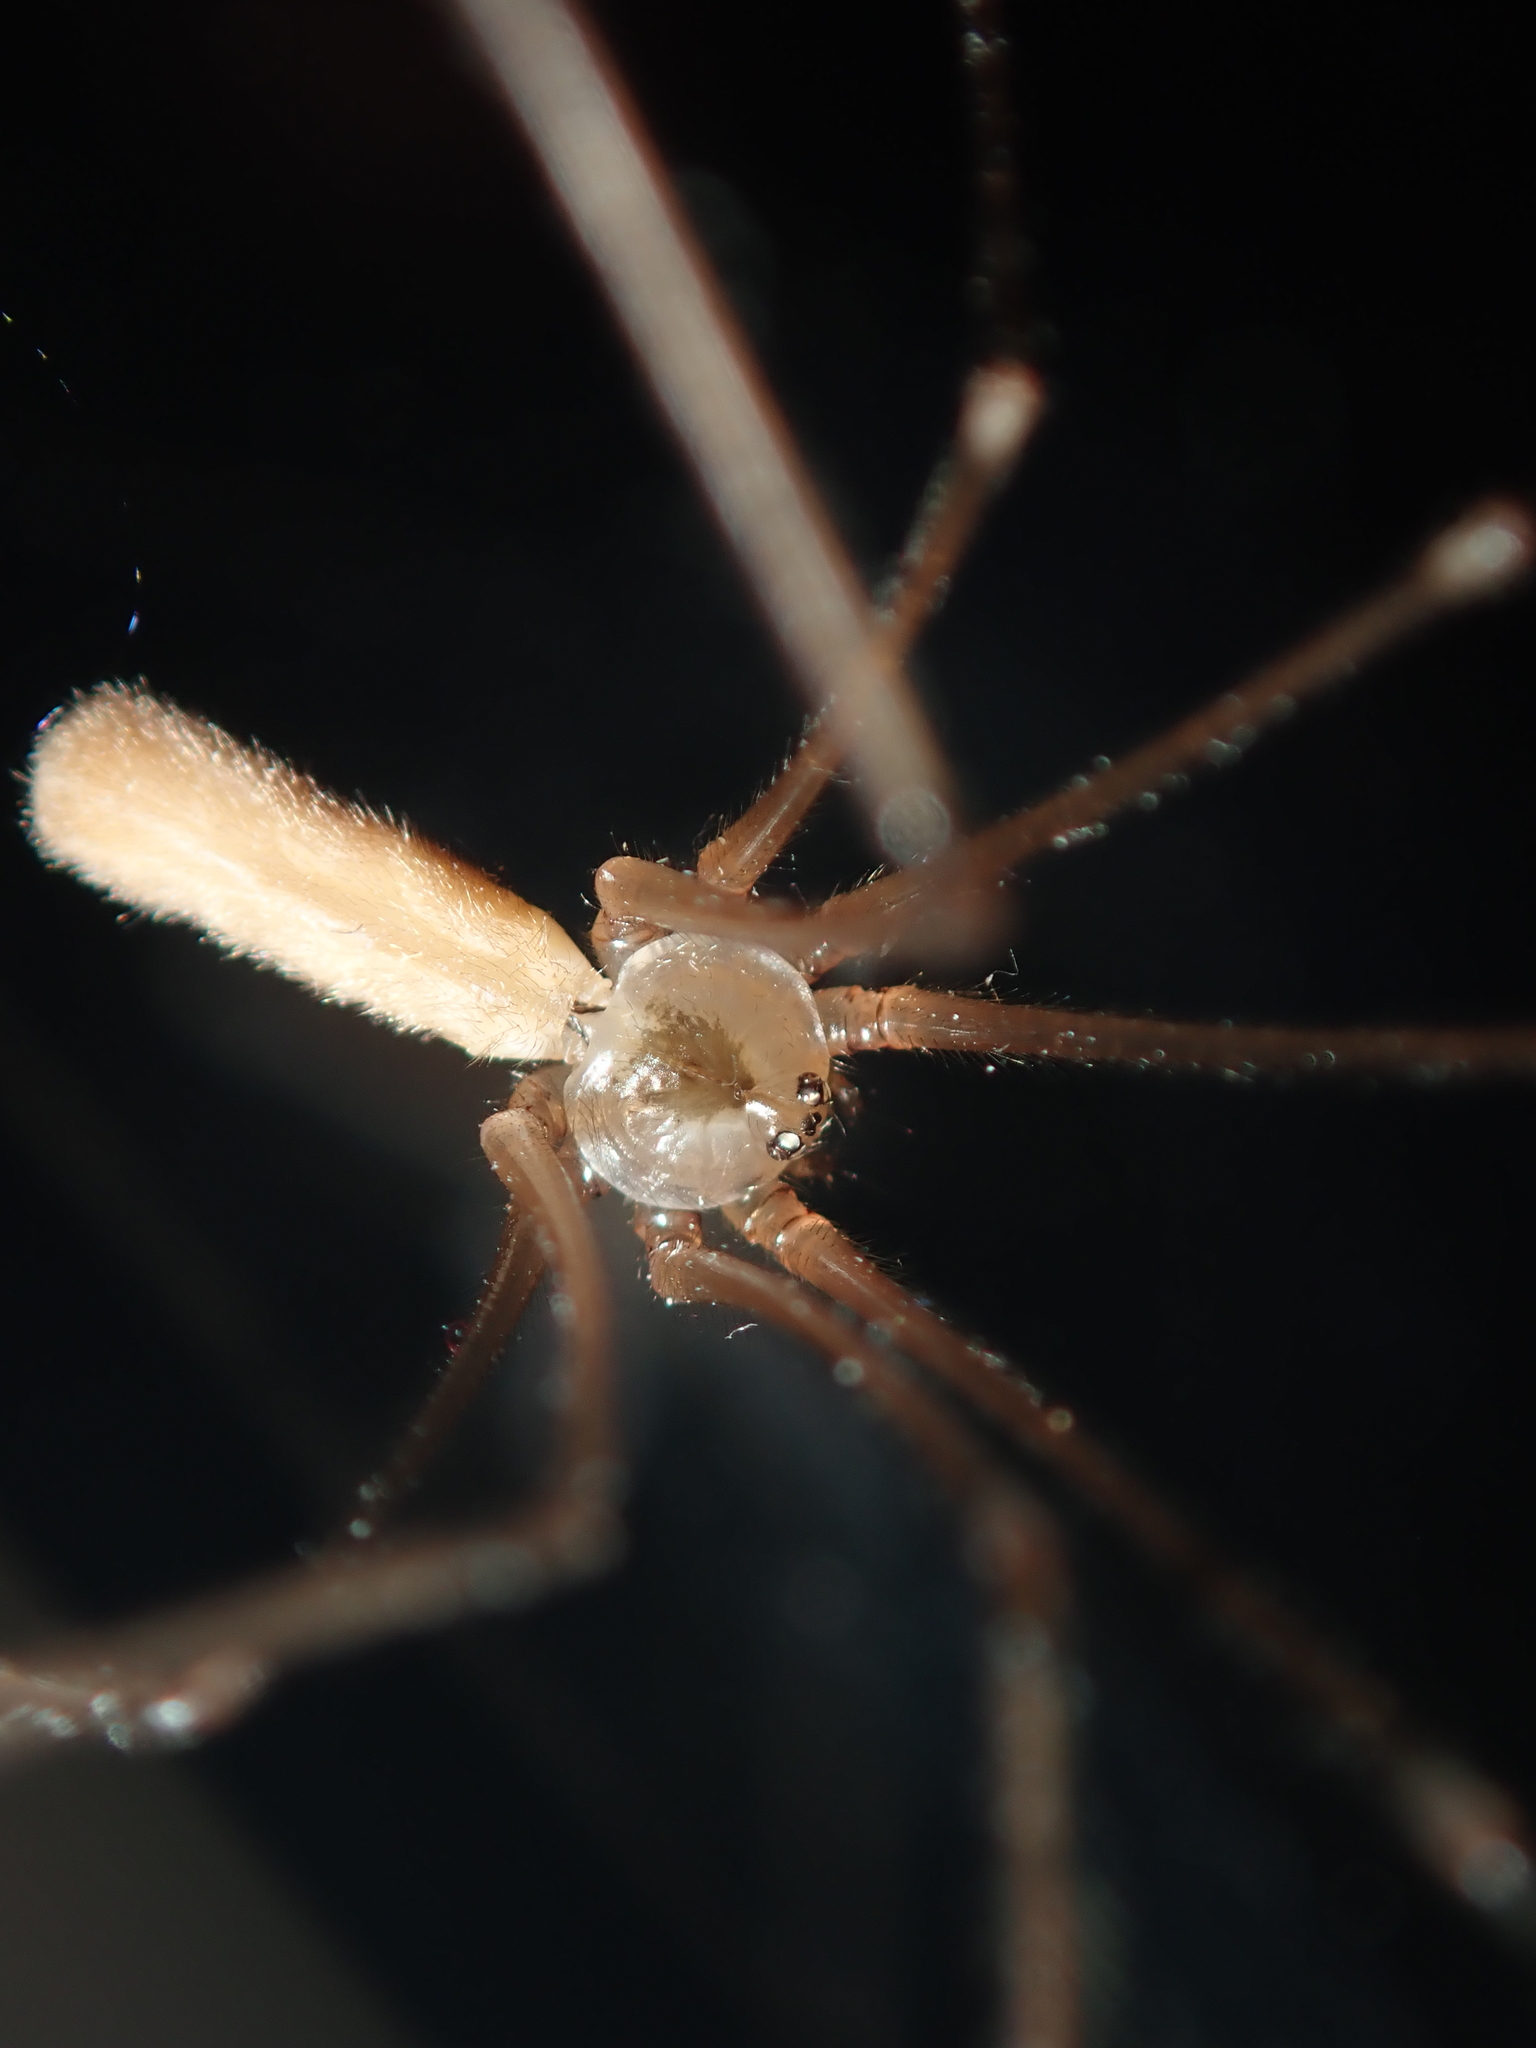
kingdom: Animalia
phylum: Arthropoda
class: Arachnida
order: Araneae
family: Pholcidae
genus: Pholcus
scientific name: Pholcus phalangioides
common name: Longbodied cellar spider
